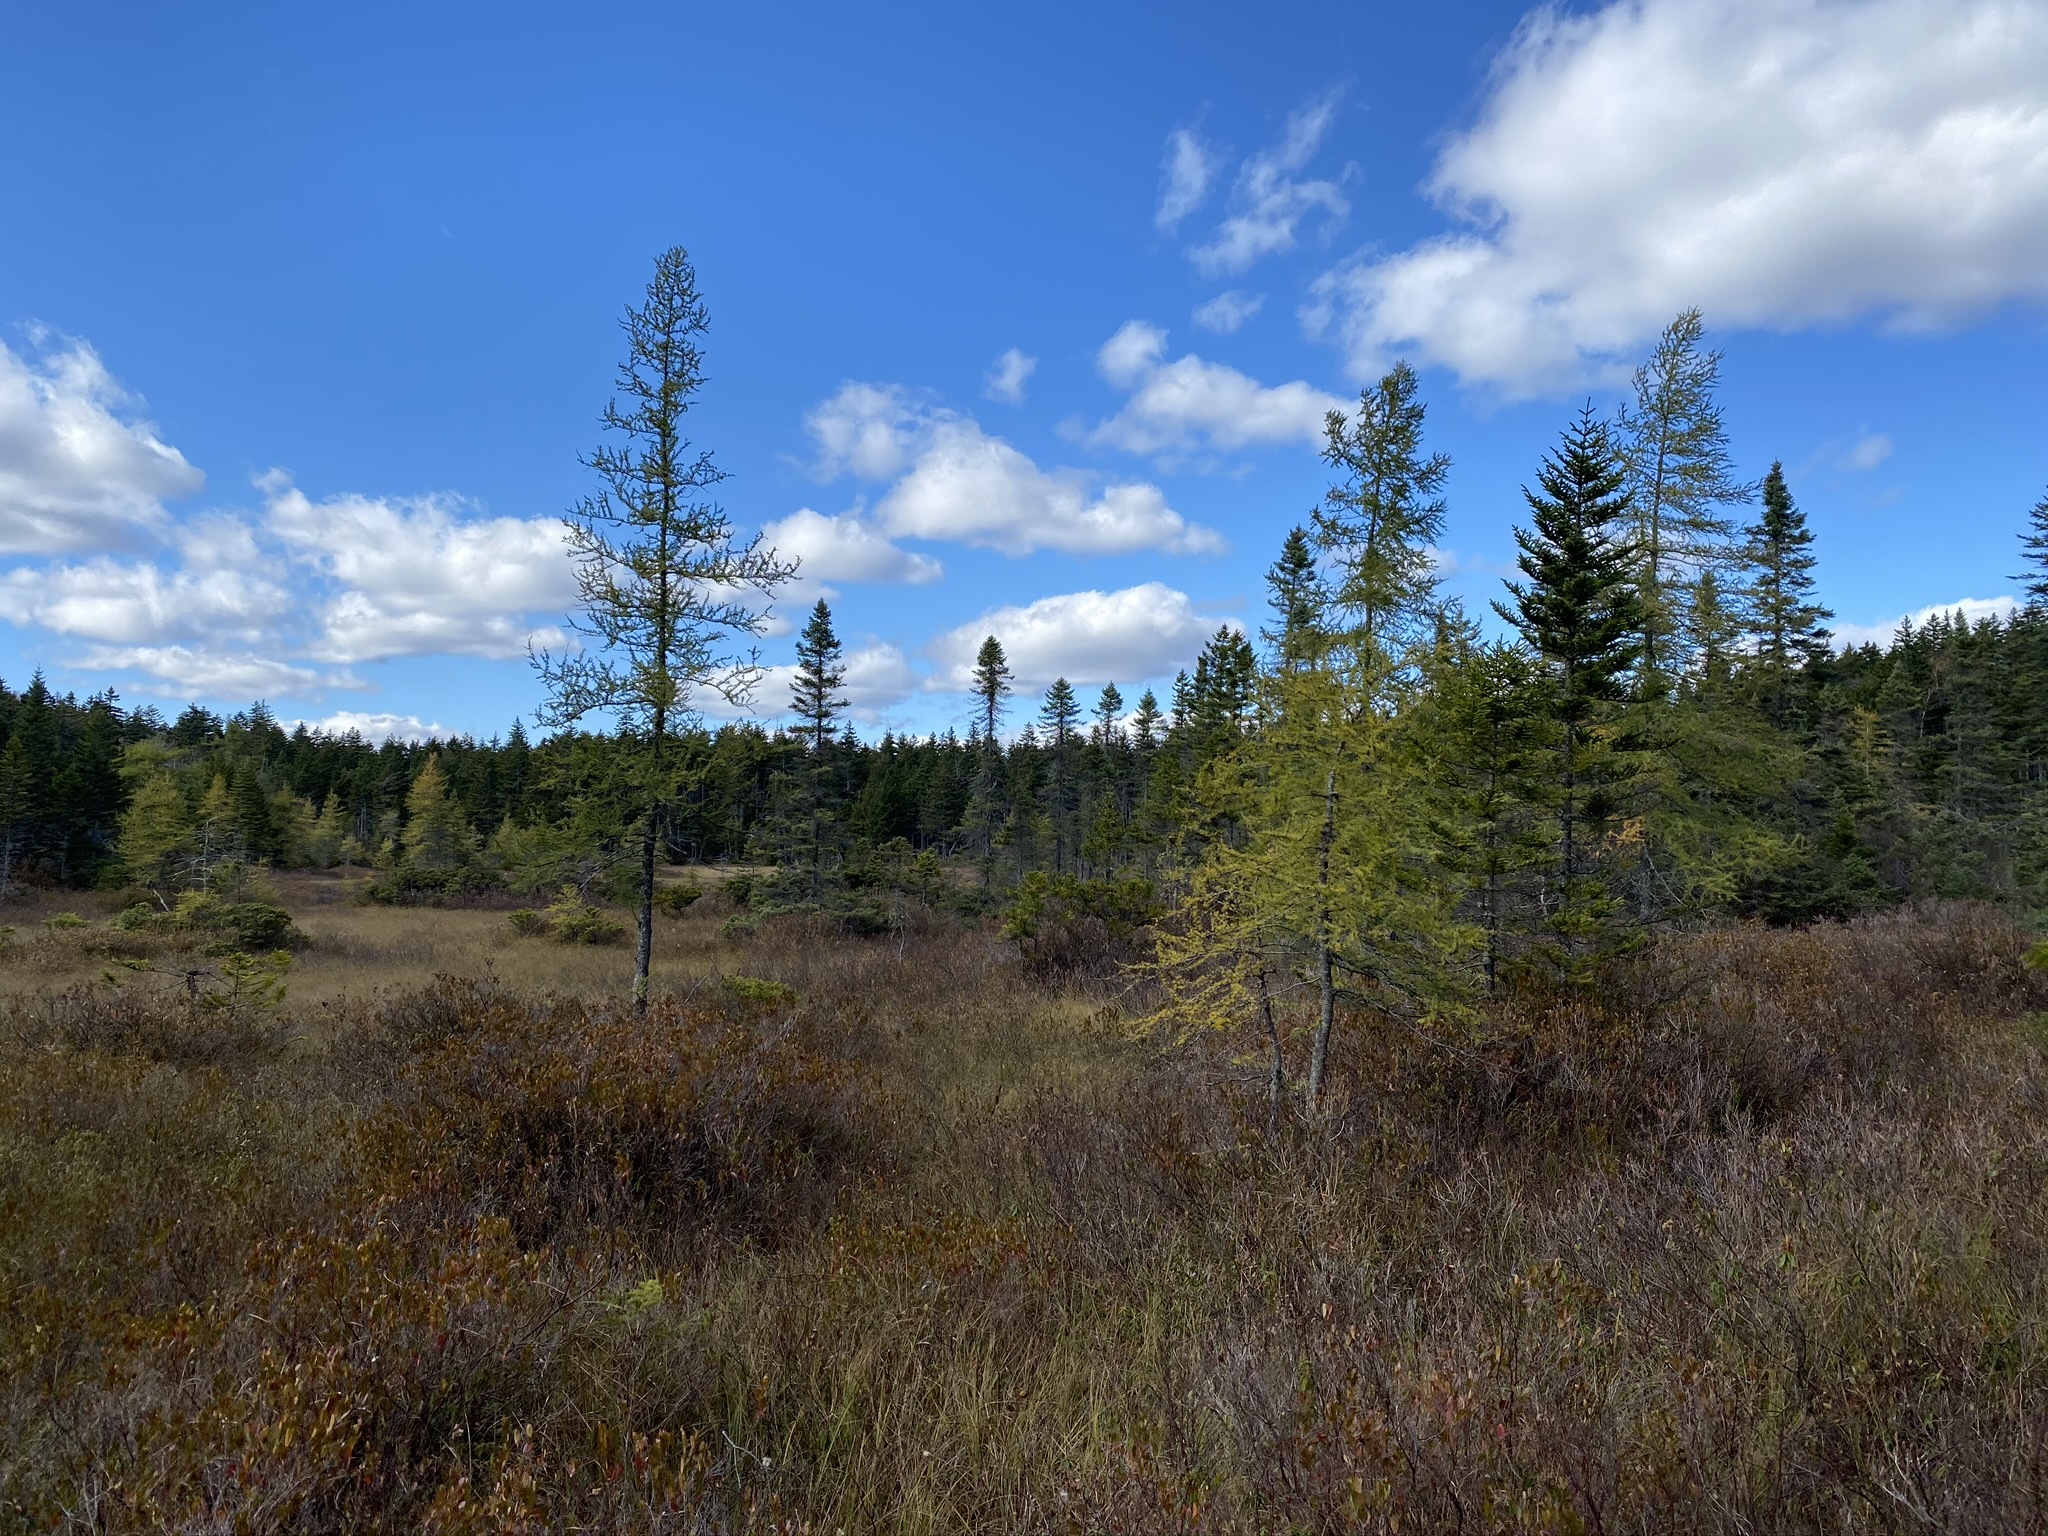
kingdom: Plantae
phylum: Tracheophyta
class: Pinopsida
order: Pinales
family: Pinaceae
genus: Larix
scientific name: Larix laricina
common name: American larch
